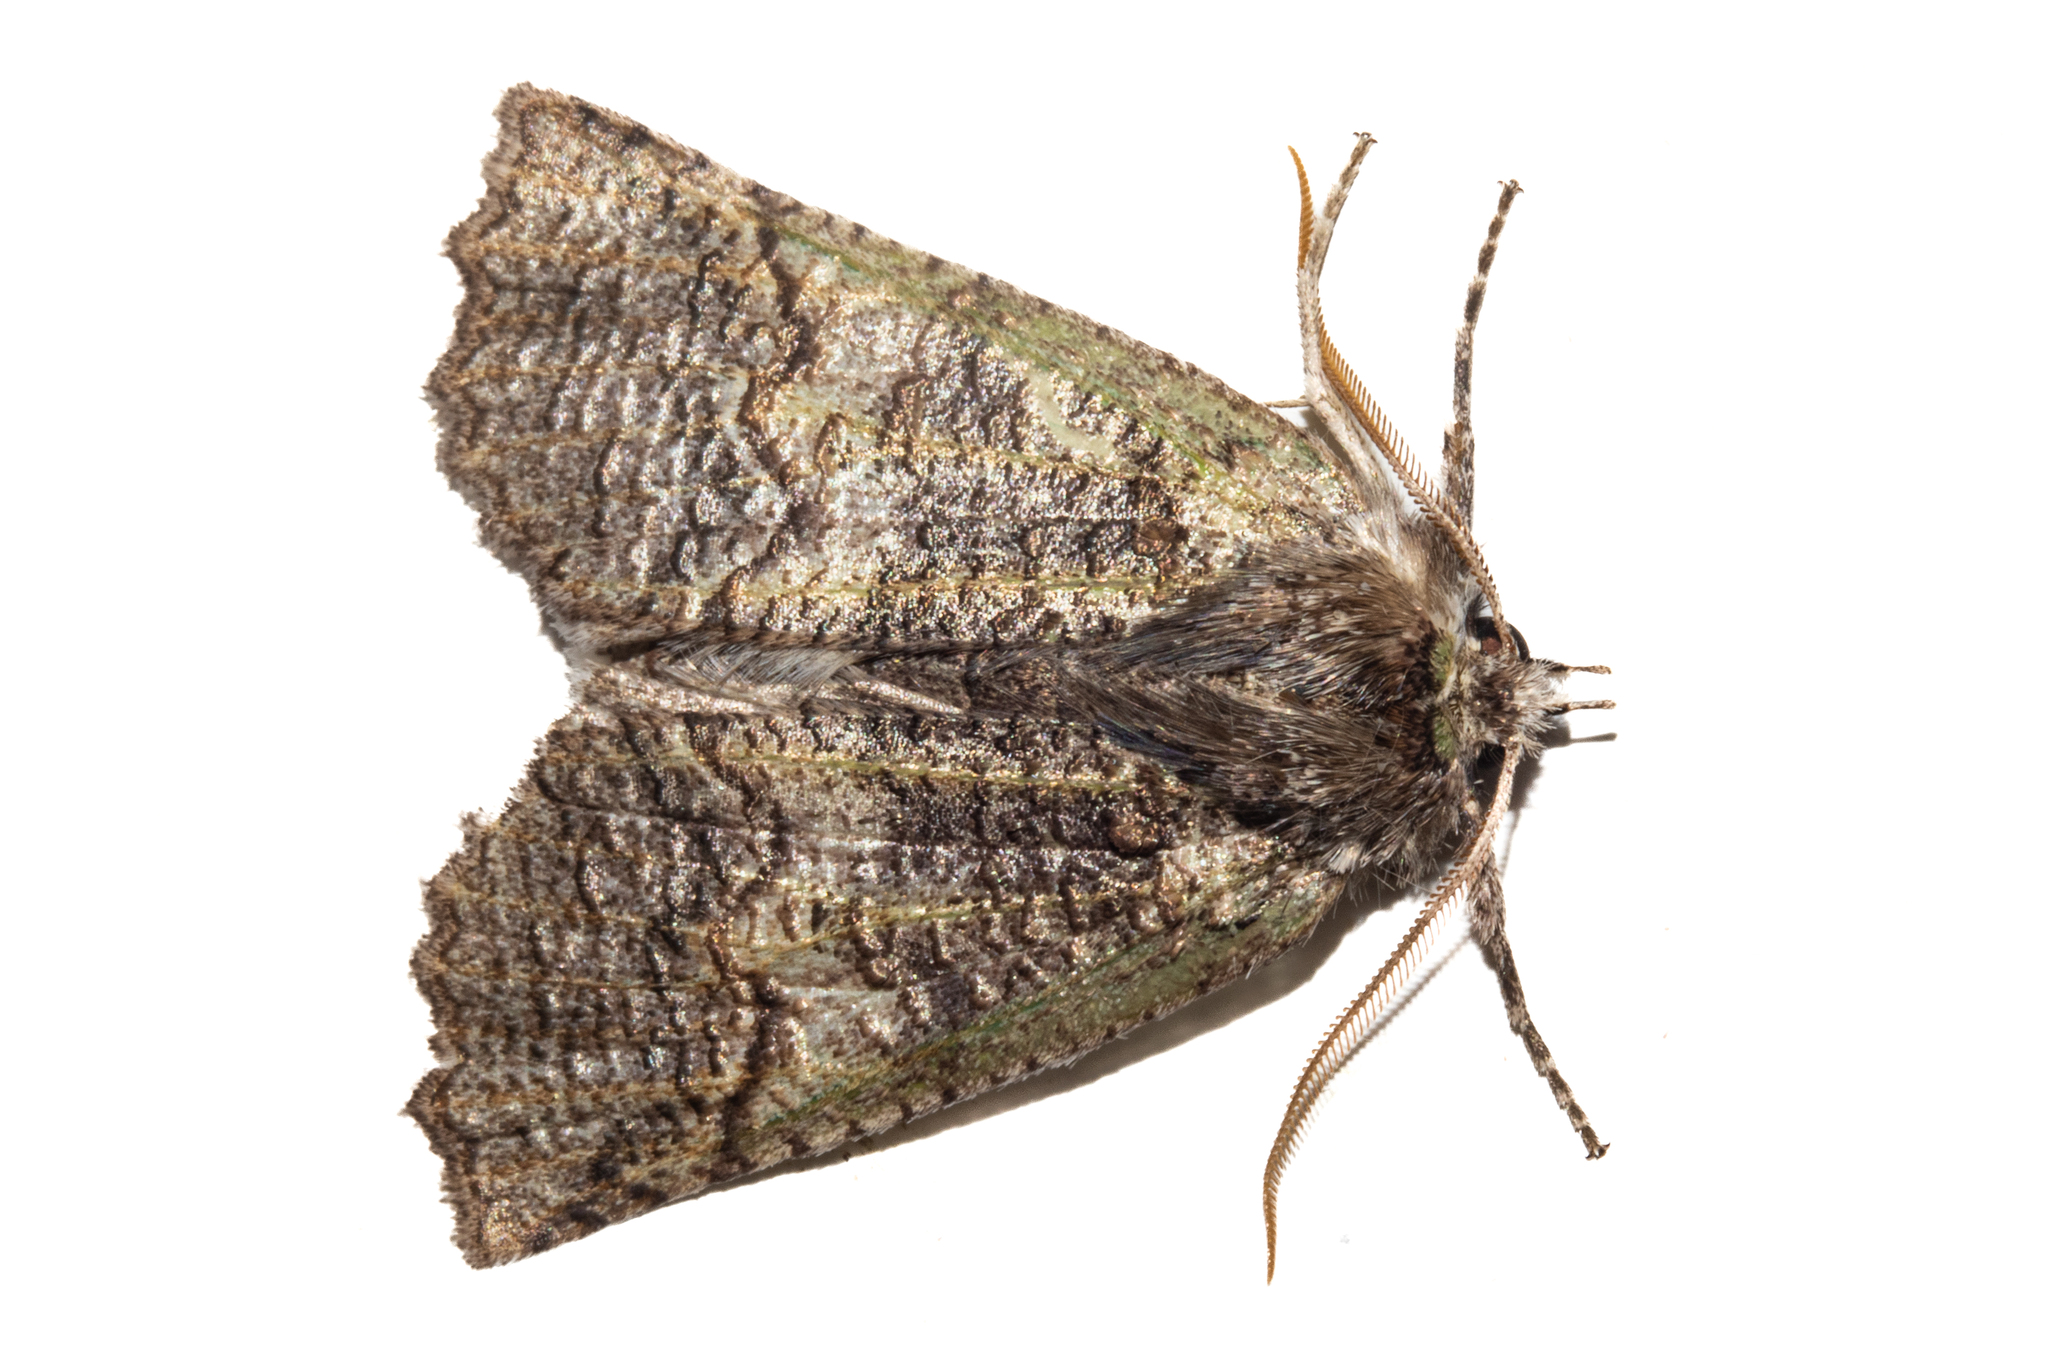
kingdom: Animalia
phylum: Arthropoda
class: Insecta
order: Lepidoptera
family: Geometridae
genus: Declana
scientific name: Declana floccosa
